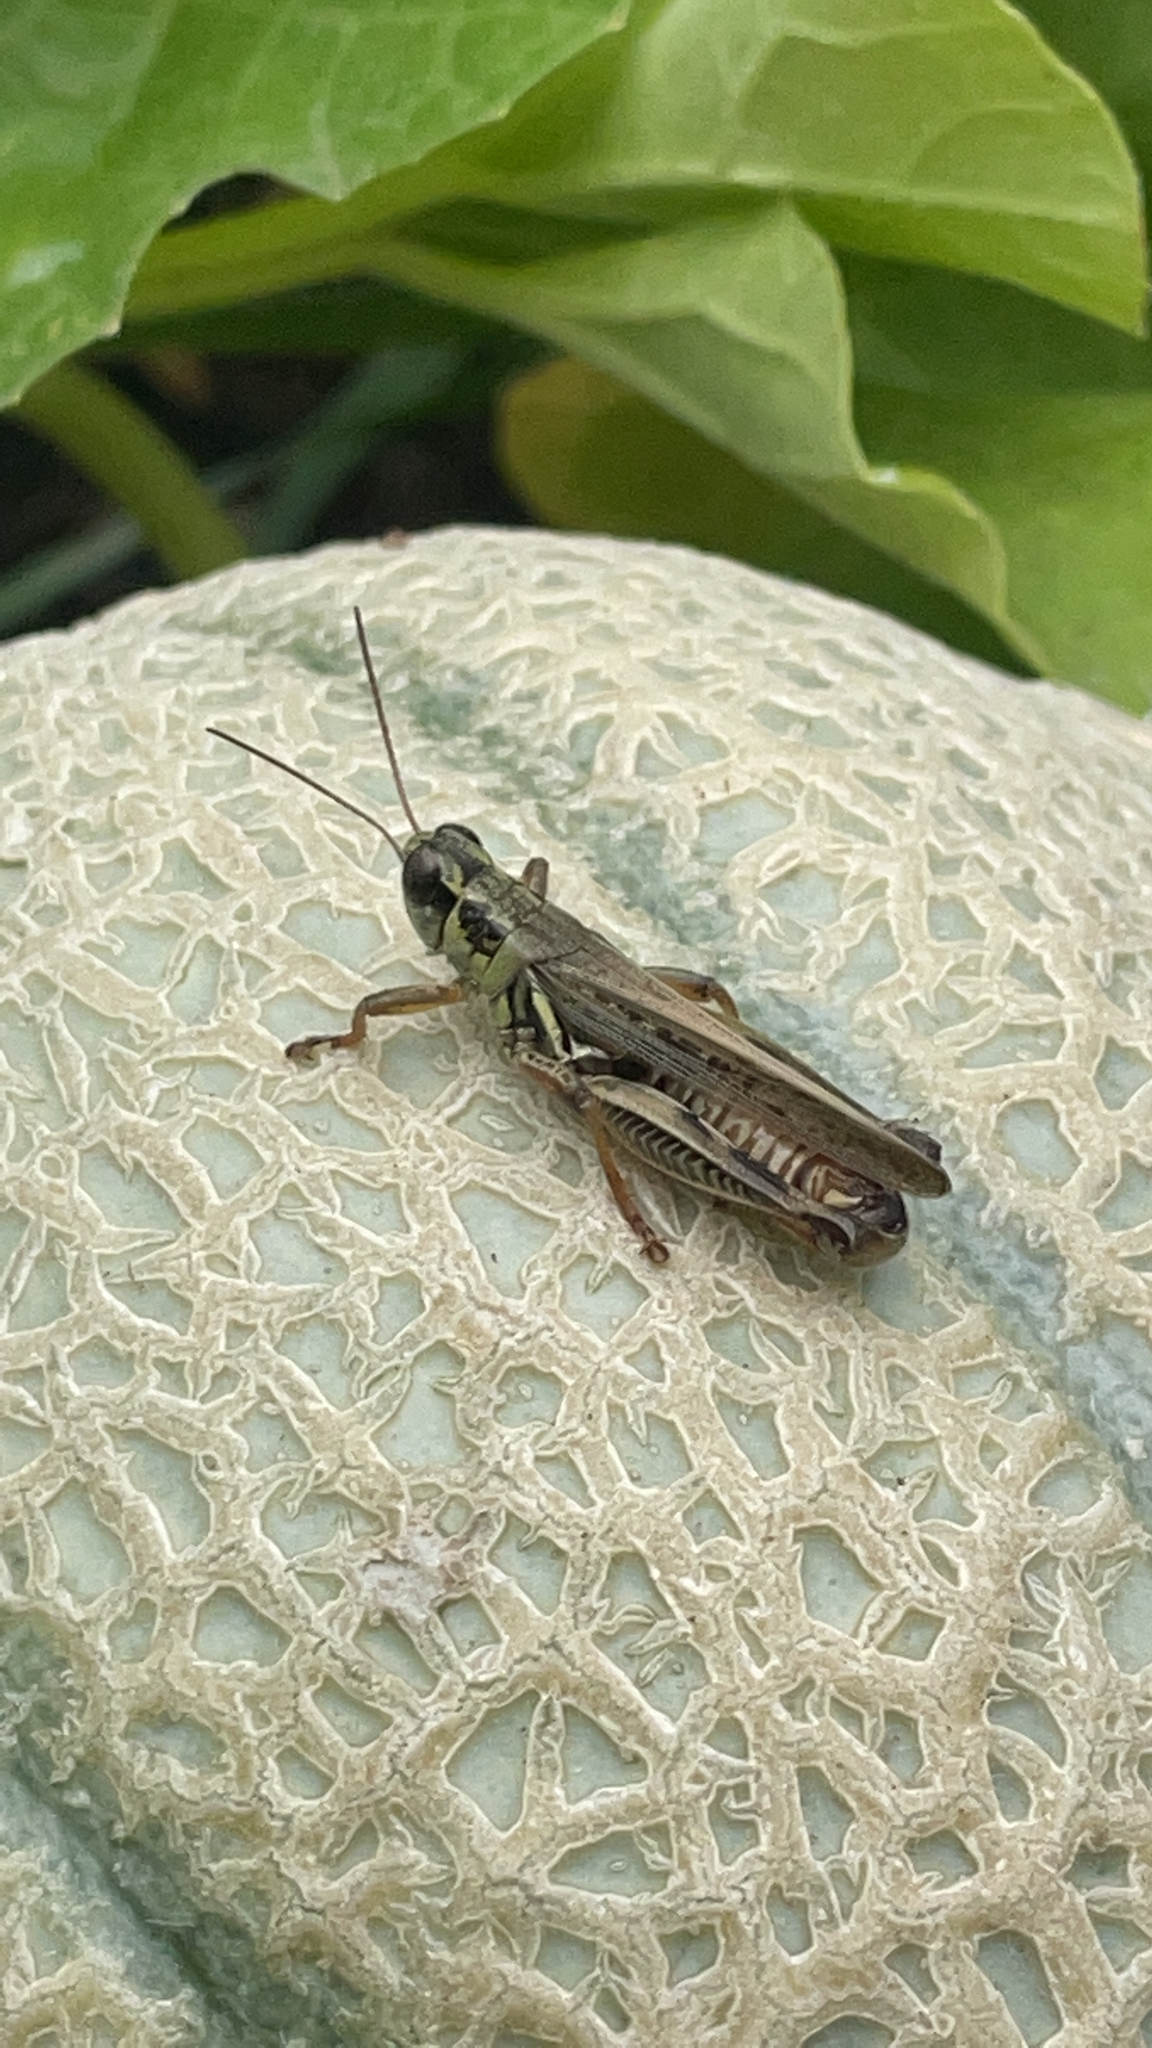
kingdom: Animalia
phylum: Arthropoda
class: Insecta
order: Orthoptera
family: Acrididae
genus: Melanoplus
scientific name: Melanoplus femurrubrum
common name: Red-legged grasshopper
